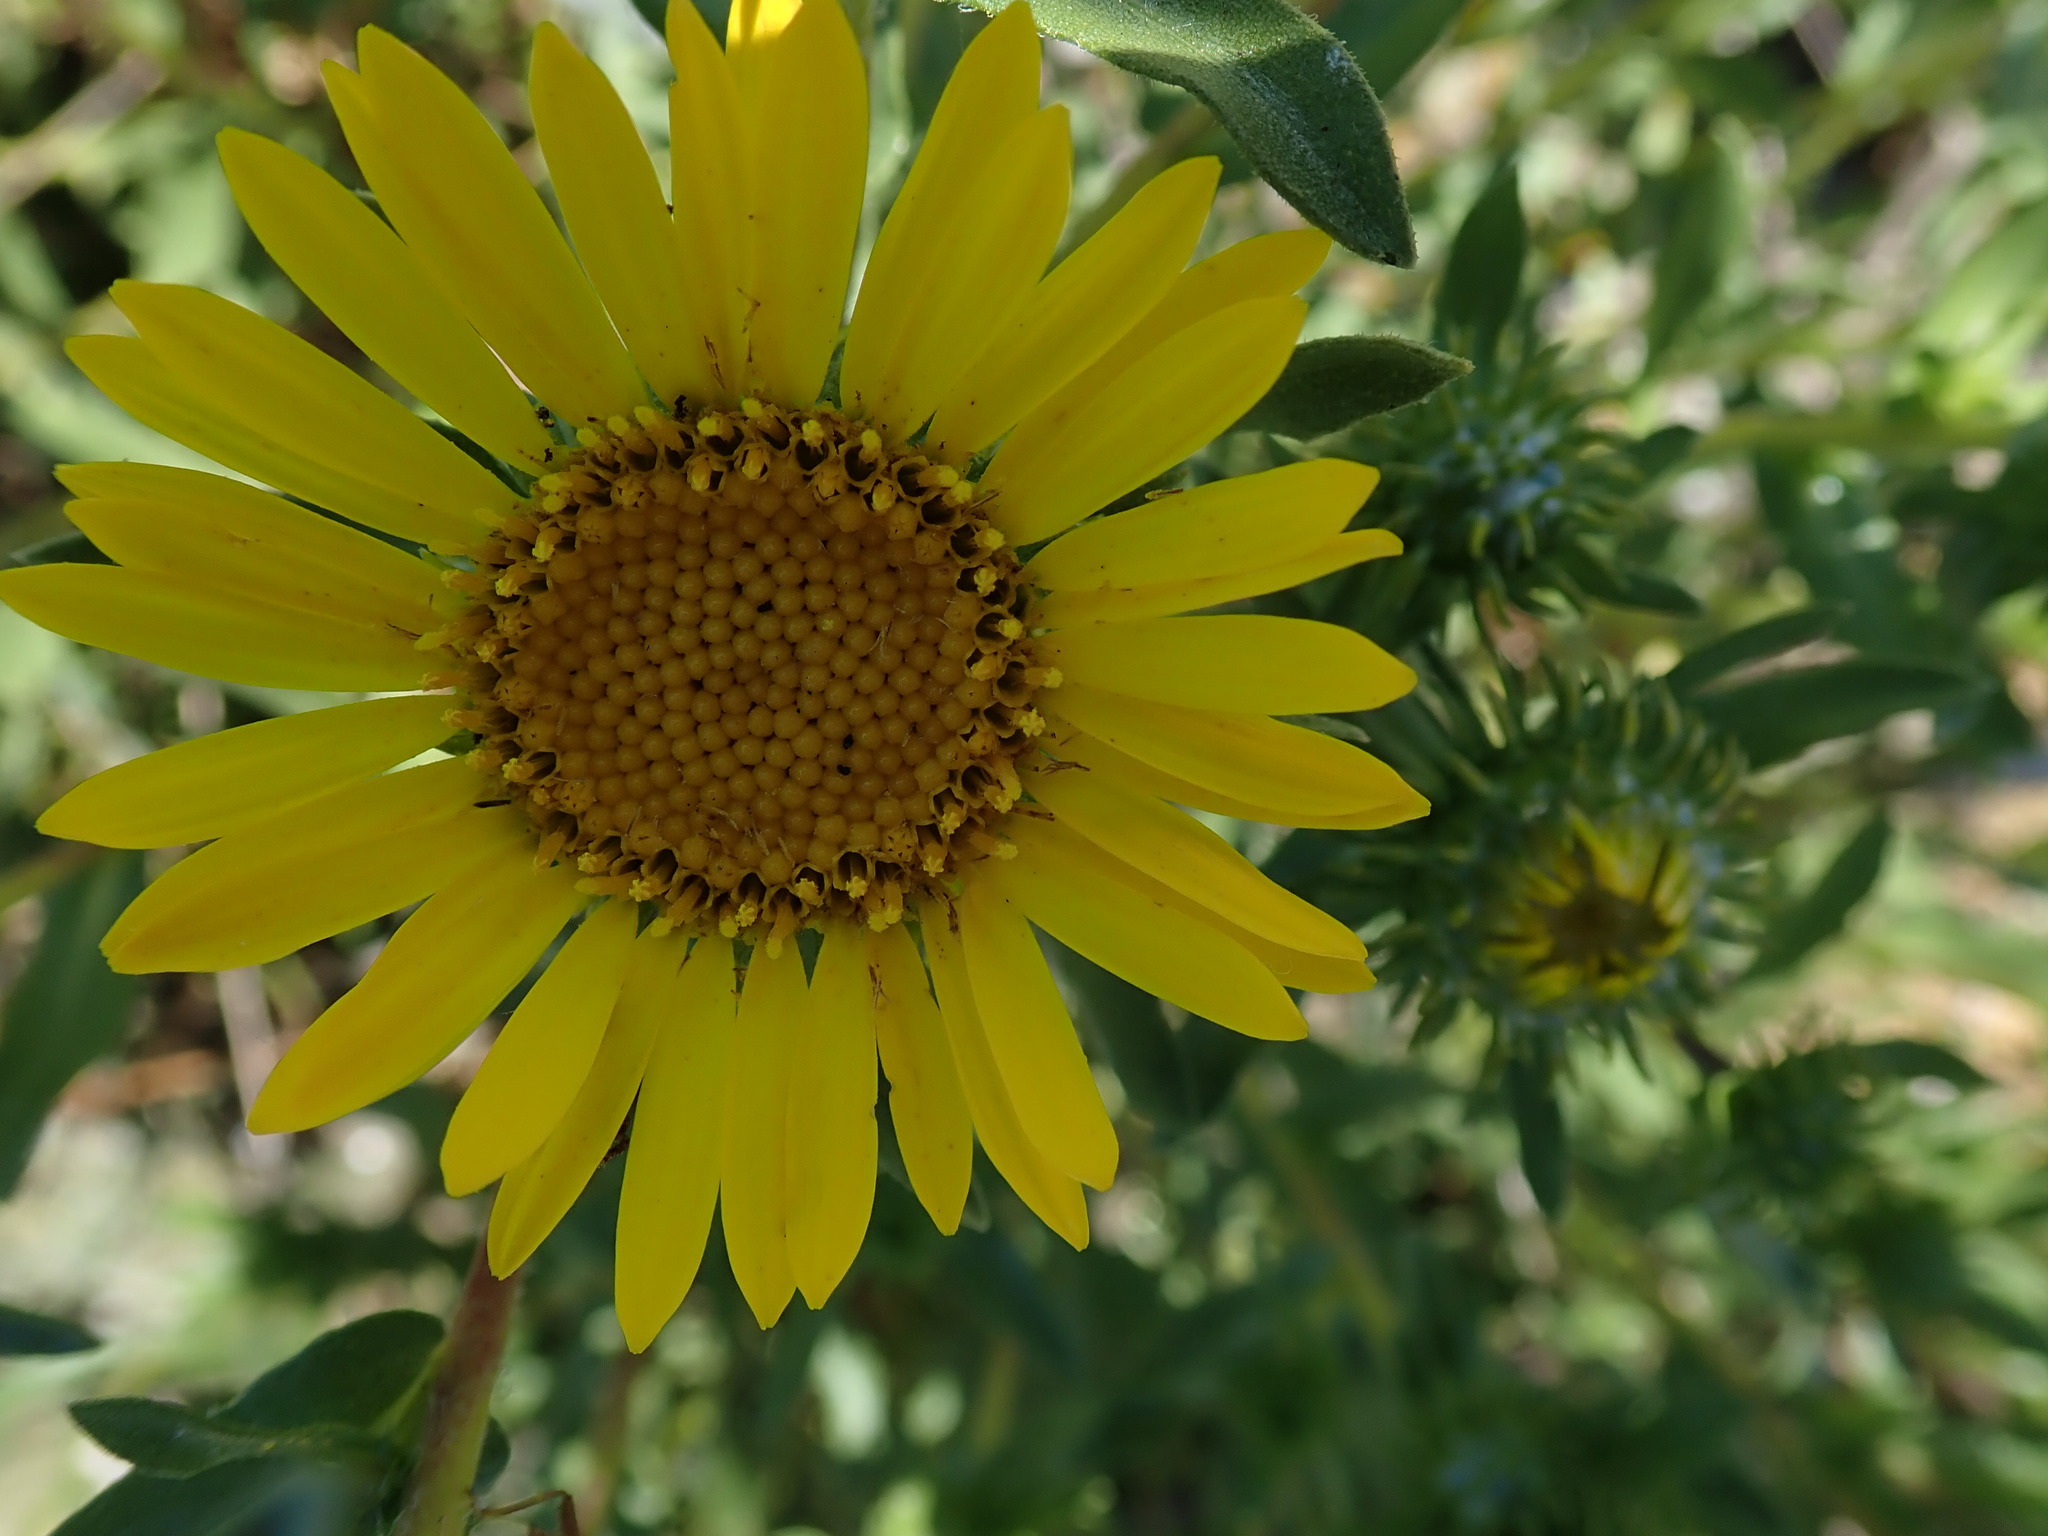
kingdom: Plantae
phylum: Tracheophyta
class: Magnoliopsida
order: Asterales
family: Asteraceae
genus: Grindelia
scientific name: Grindelia
